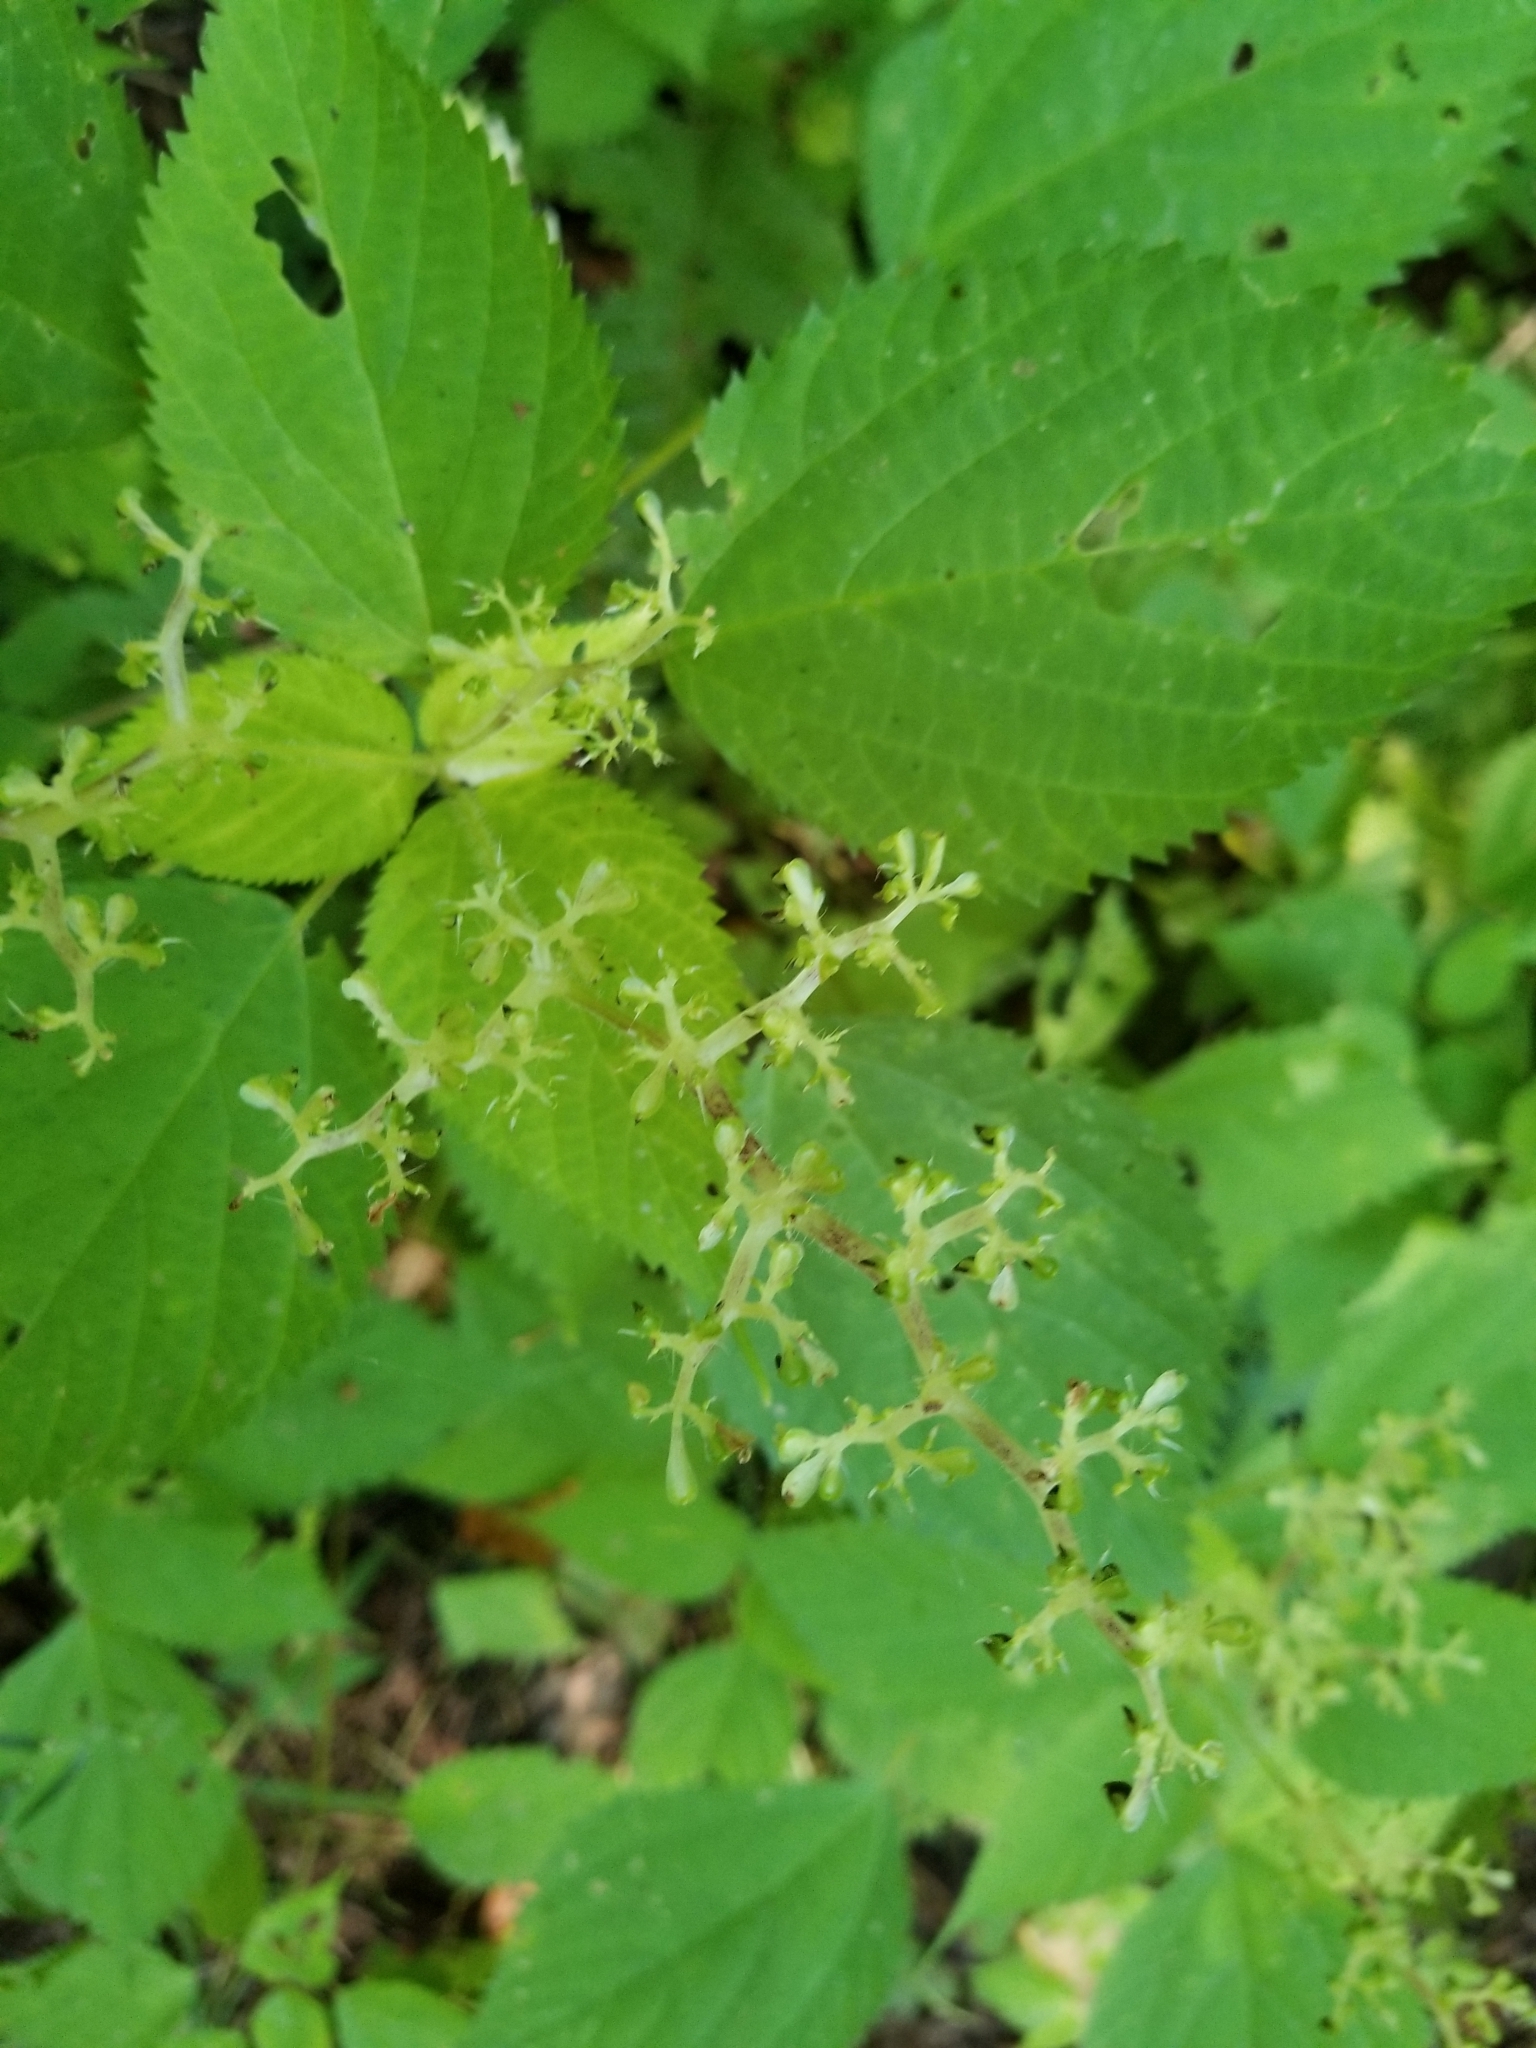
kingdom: Plantae
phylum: Tracheophyta
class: Magnoliopsida
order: Rosales
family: Urticaceae
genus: Laportea
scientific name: Laportea canadensis
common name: Canada nettle
